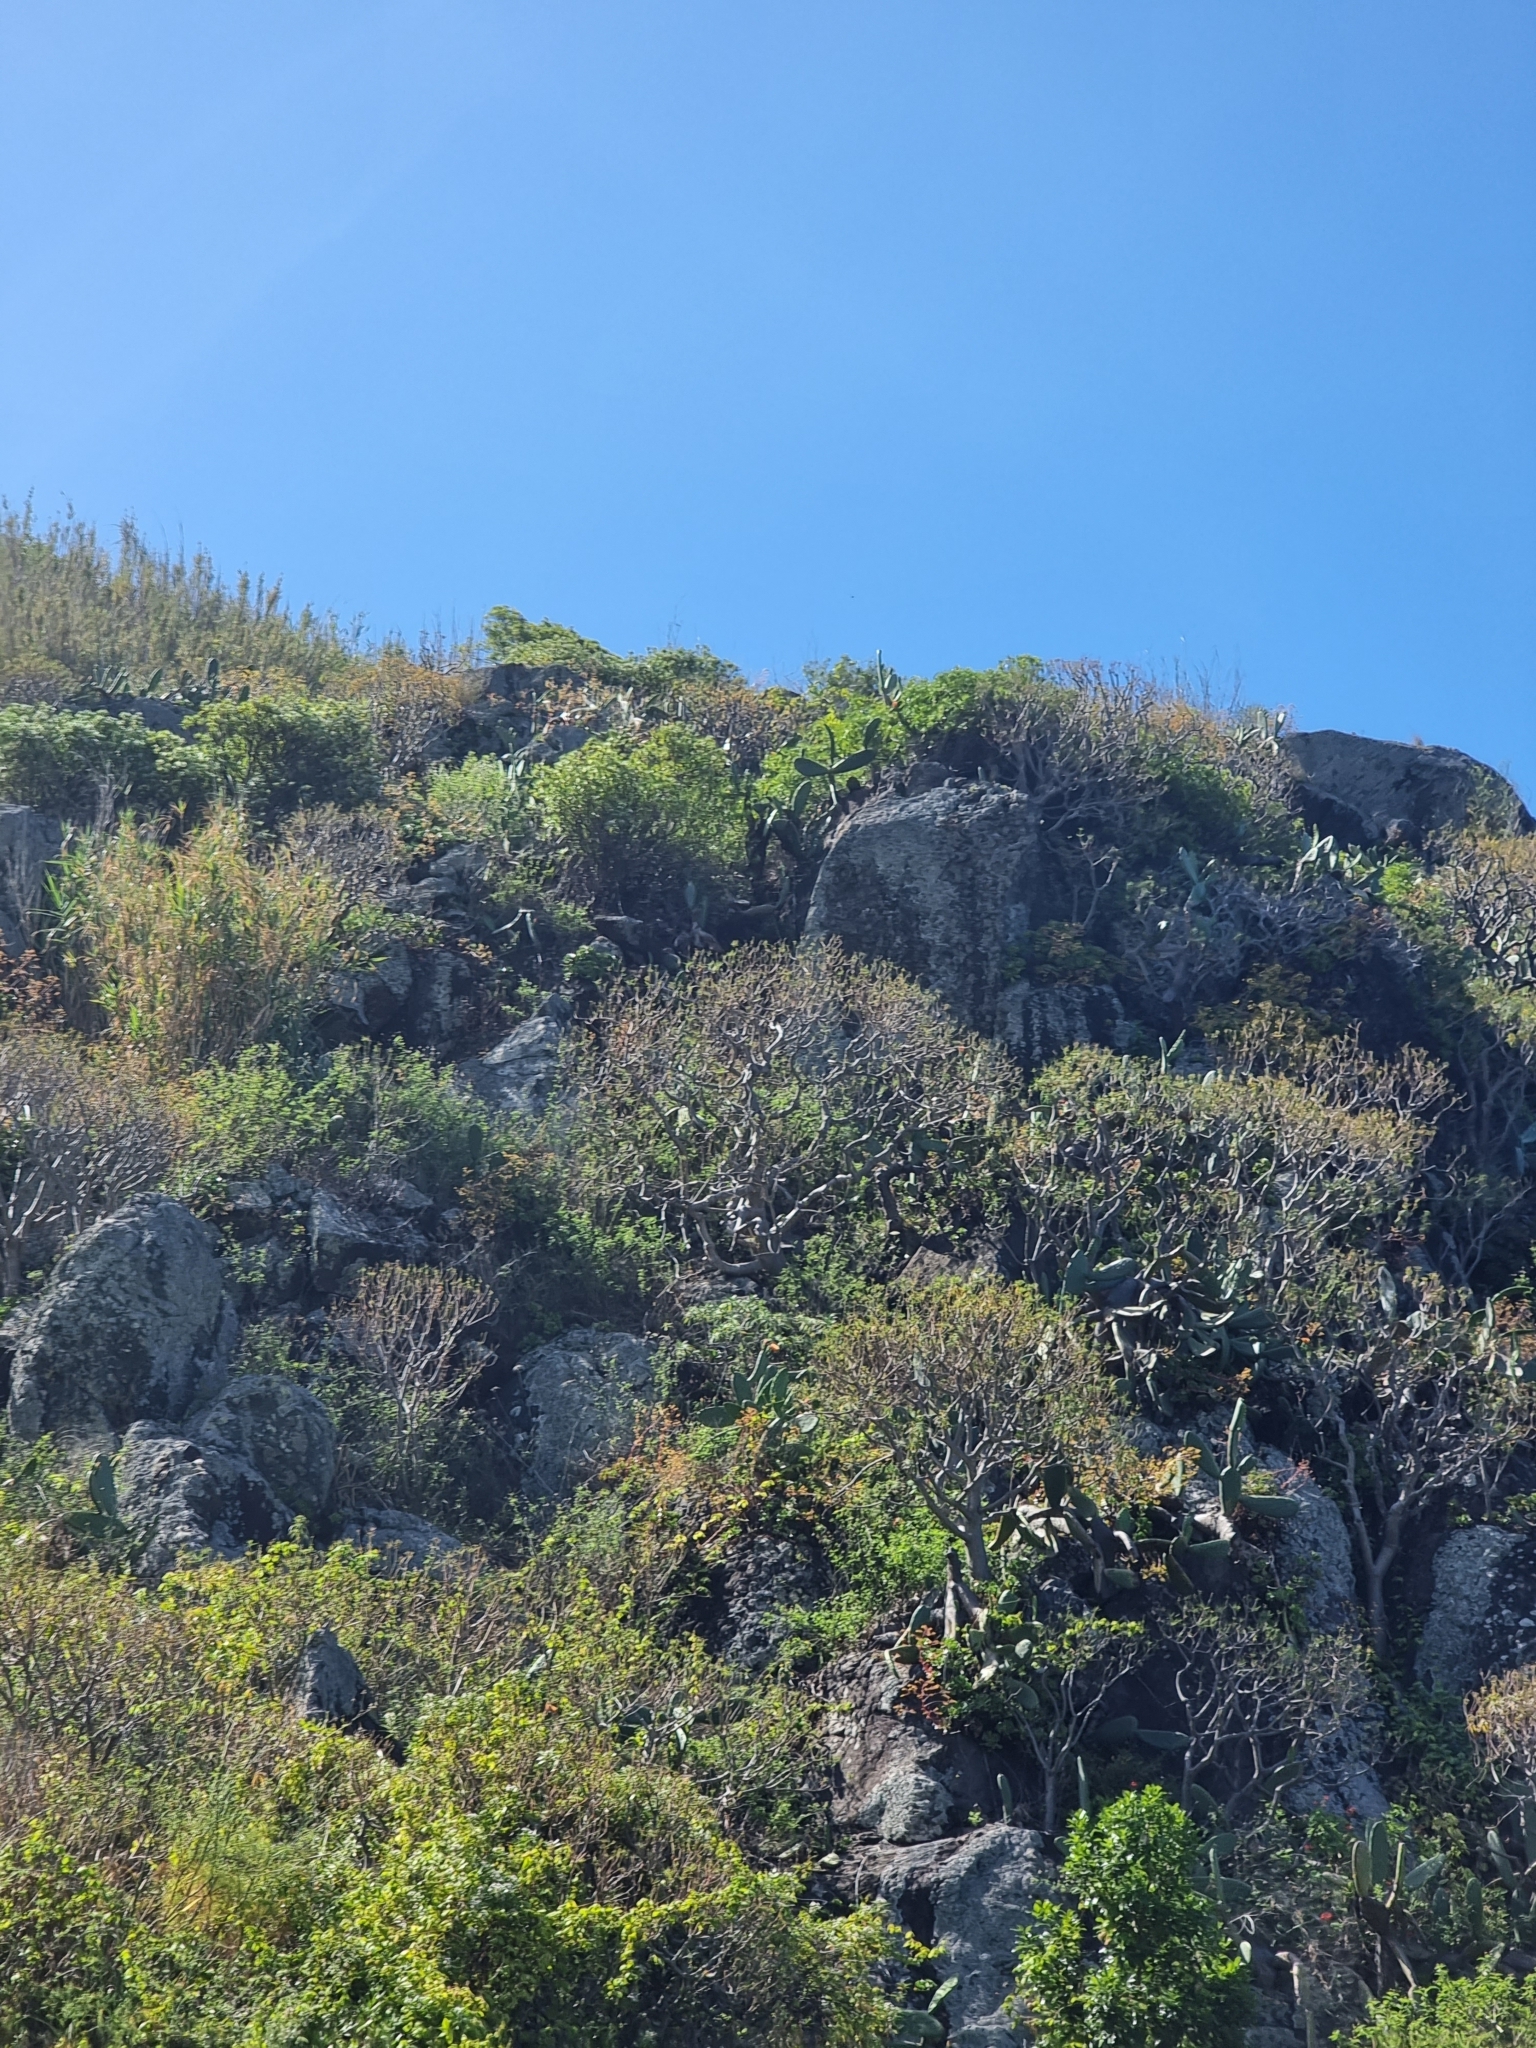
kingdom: Plantae
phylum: Tracheophyta
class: Magnoliopsida
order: Malpighiales
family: Euphorbiaceae
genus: Euphorbia
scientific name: Euphorbia piscatoria
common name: Fish-stunning spurge
